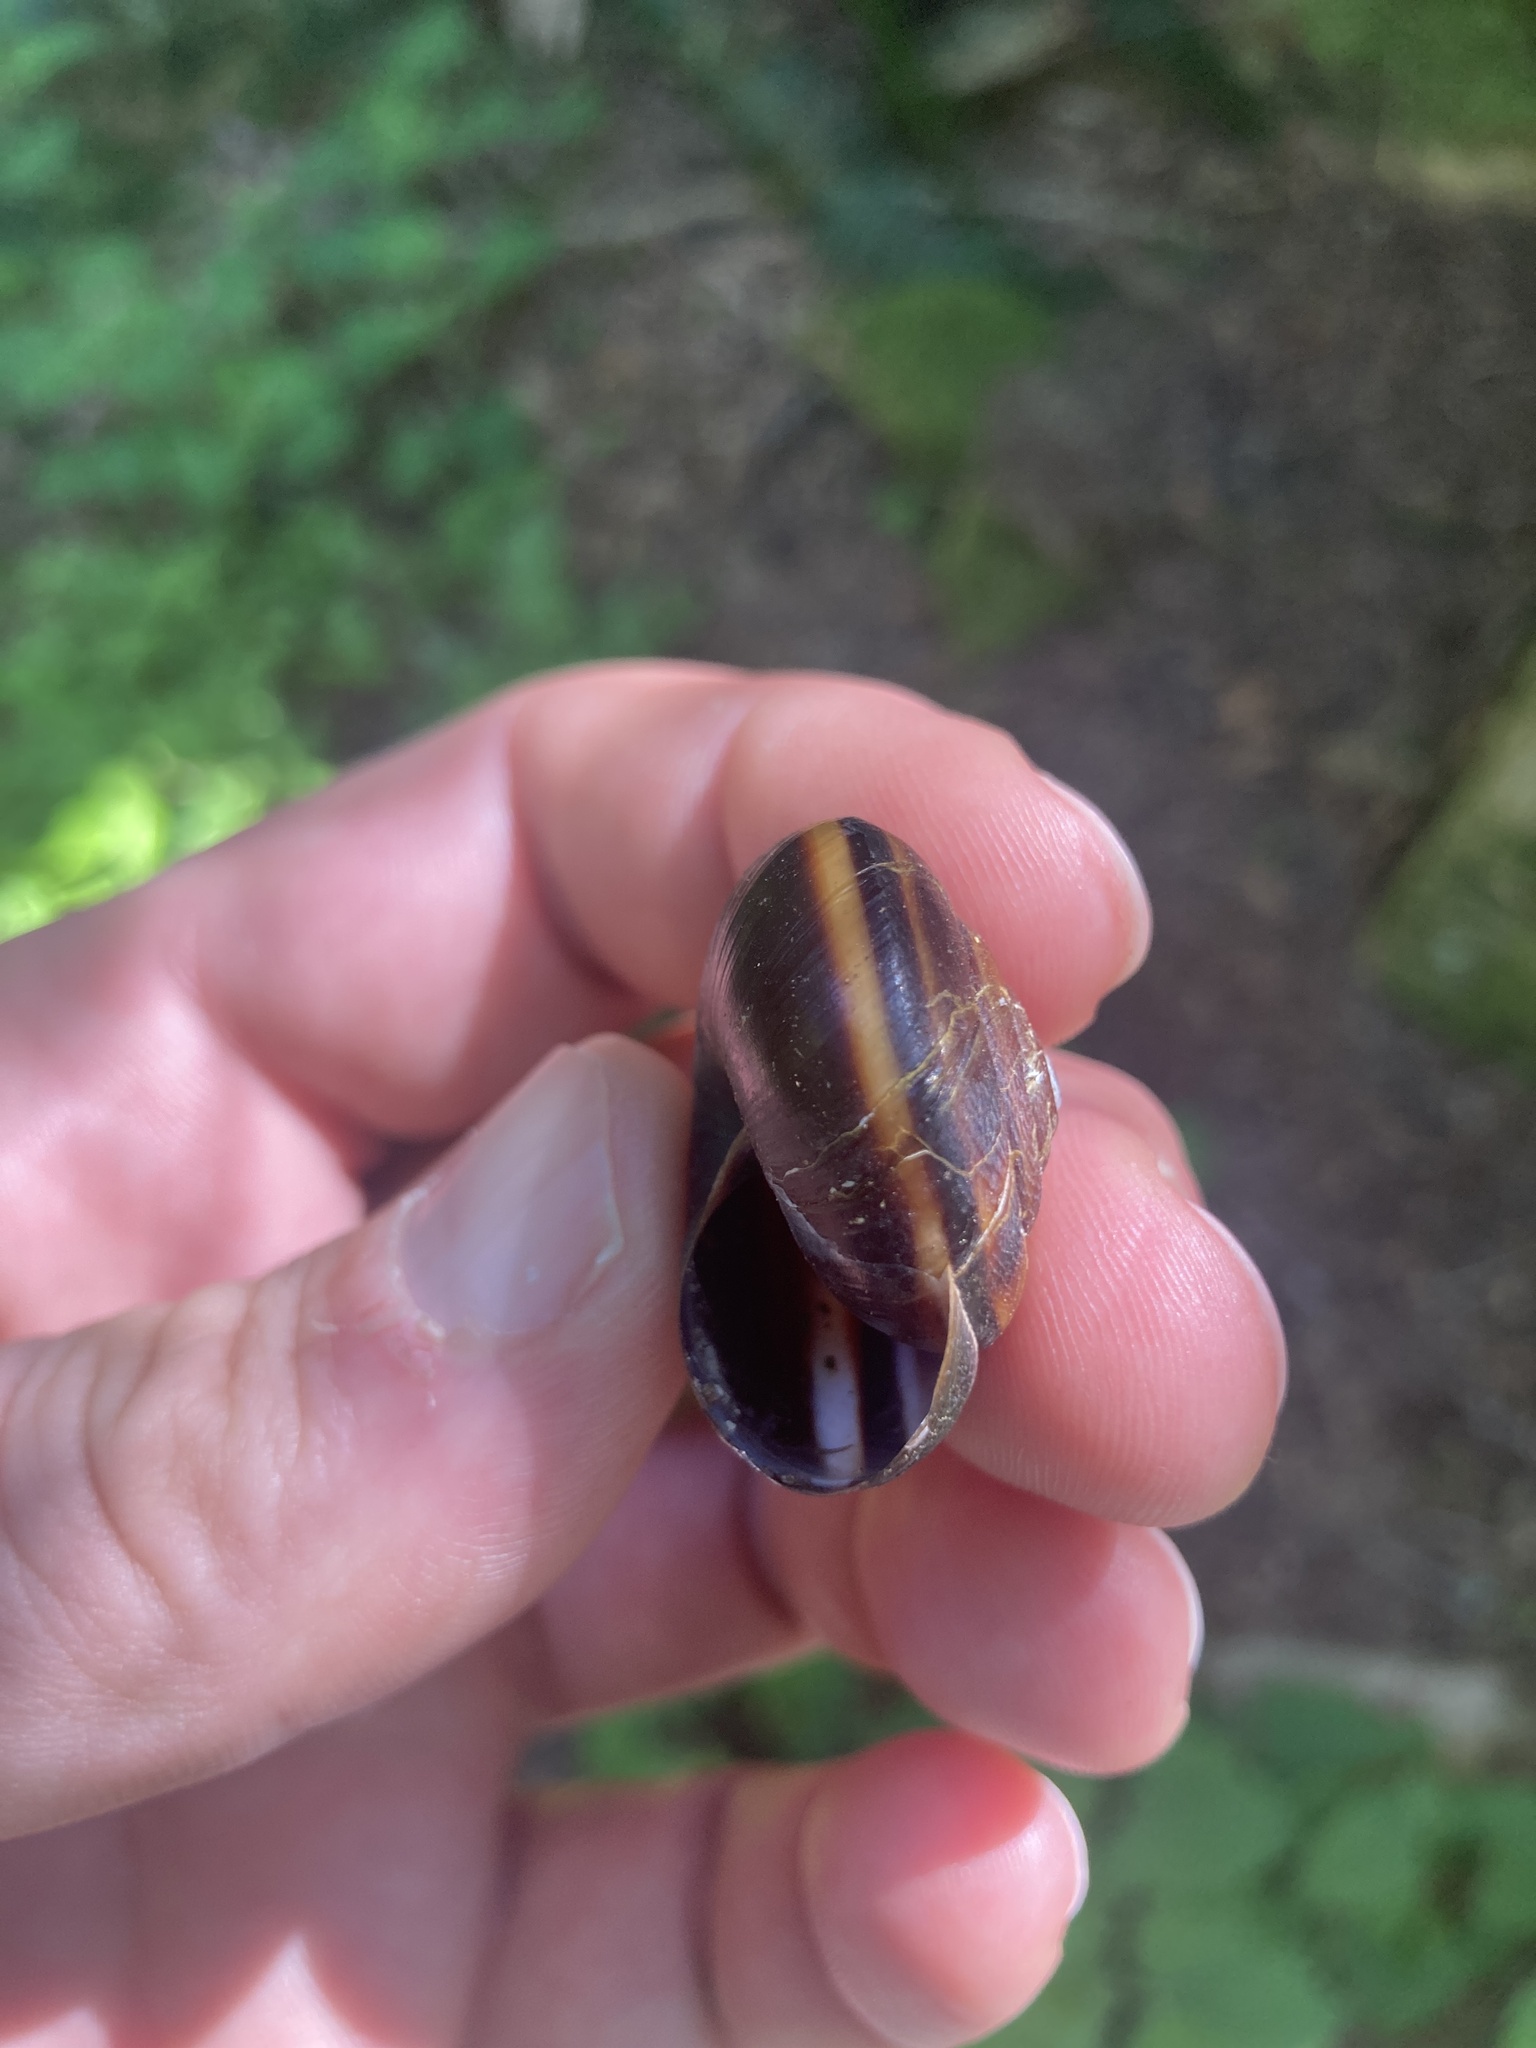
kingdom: Animalia
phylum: Mollusca
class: Gastropoda
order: Stylommatophora
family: Xanthonychidae
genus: Monadenia
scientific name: Monadenia fidelis
